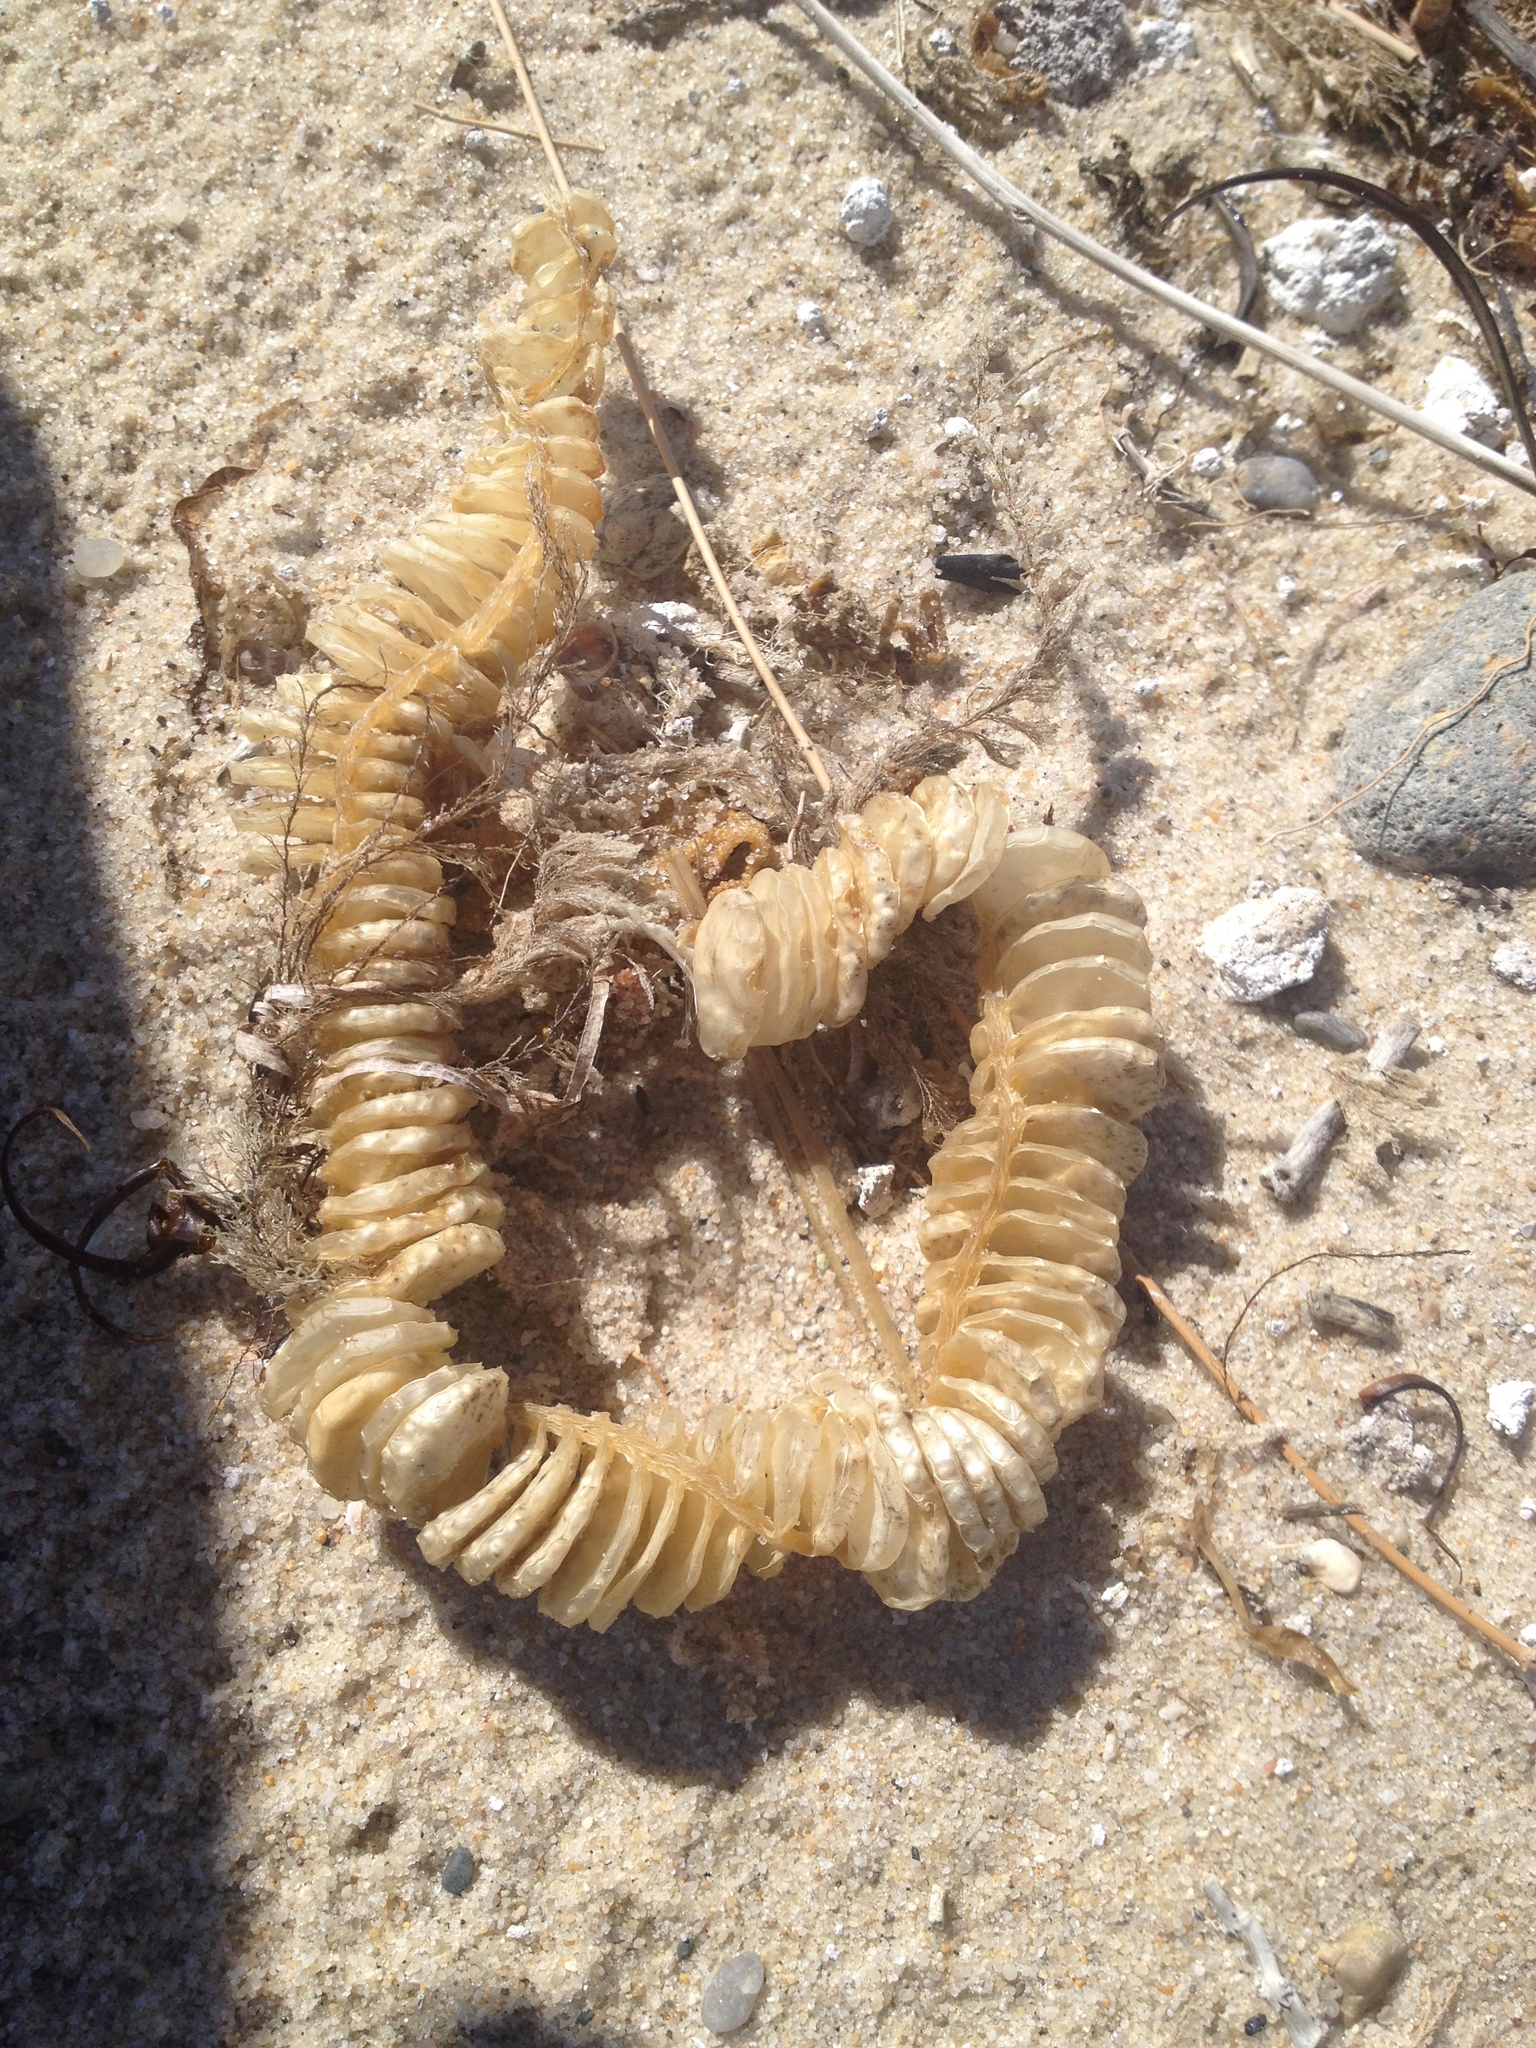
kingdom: Animalia
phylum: Mollusca
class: Gastropoda
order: Neogastropoda
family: Busyconidae
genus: Busycon
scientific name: Busycon carica
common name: Knobbed whelk
